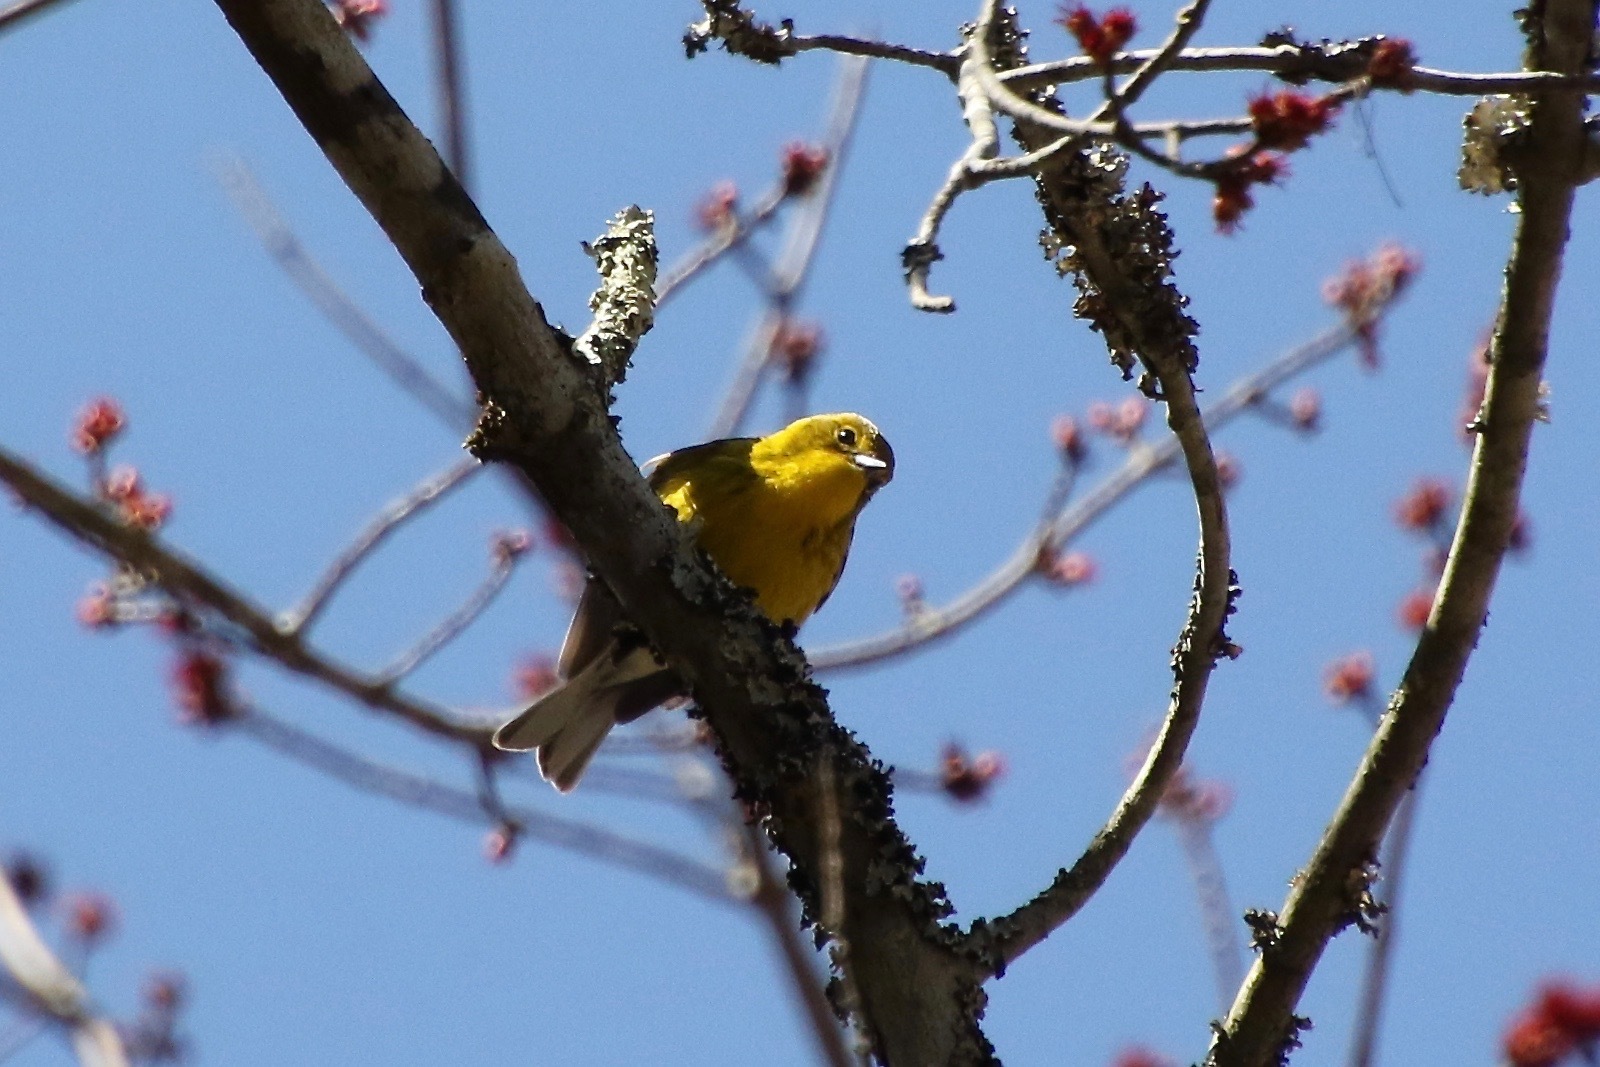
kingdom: Animalia
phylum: Chordata
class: Aves
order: Passeriformes
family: Parulidae
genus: Setophaga
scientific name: Setophaga pinus
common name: Pine warbler
